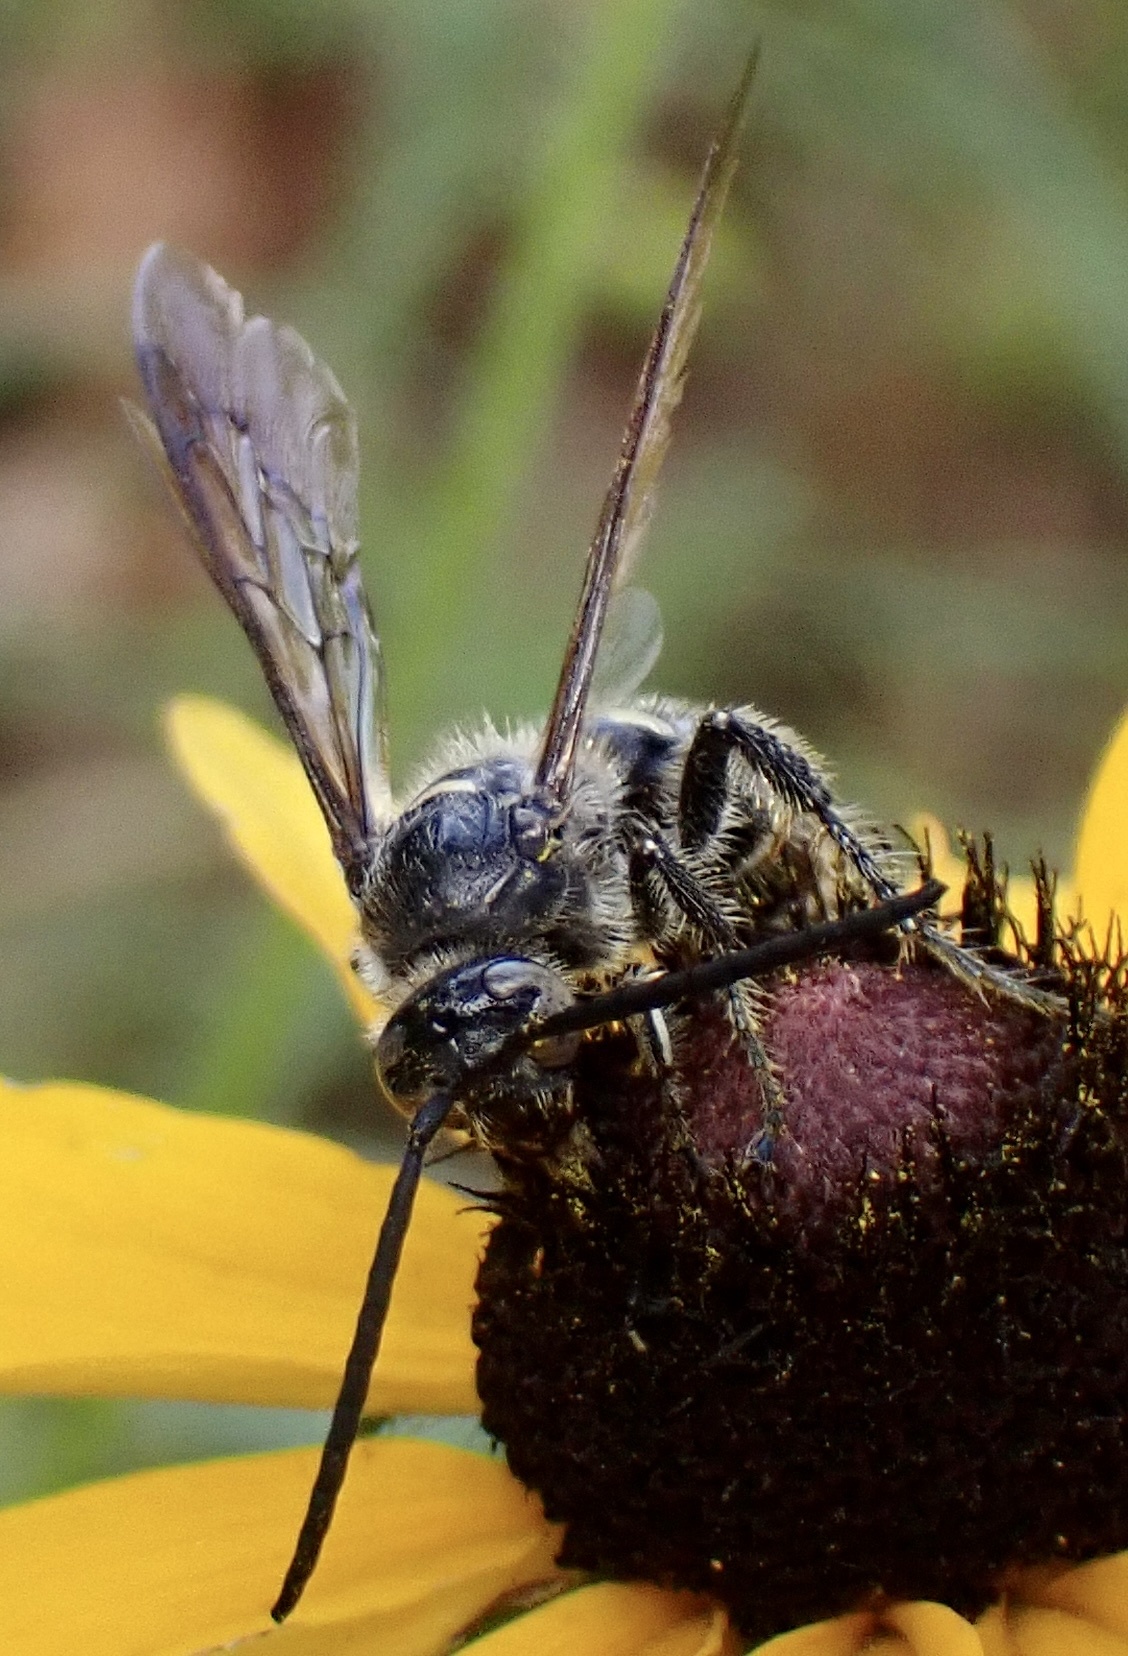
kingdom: Animalia
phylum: Arthropoda
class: Insecta
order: Hymenoptera
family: Scoliidae
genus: Dielis
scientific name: Dielis
